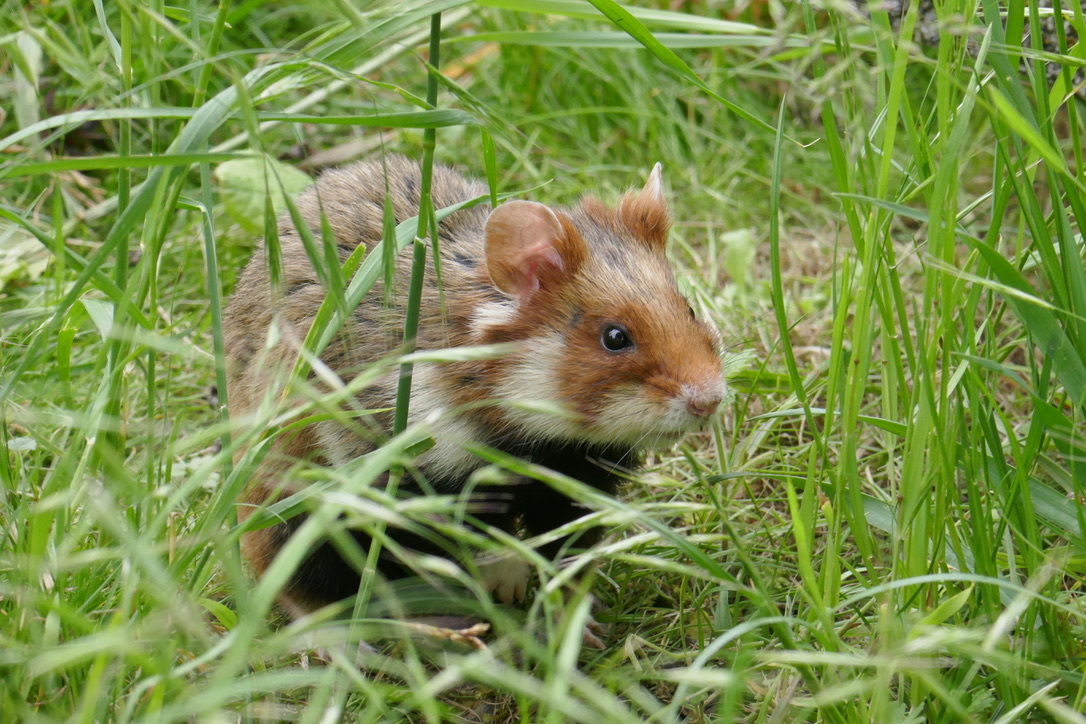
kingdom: Animalia
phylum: Chordata
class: Mammalia
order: Rodentia
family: Cricetidae
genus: Cricetus
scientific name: Cricetus cricetus
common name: Common hamster
